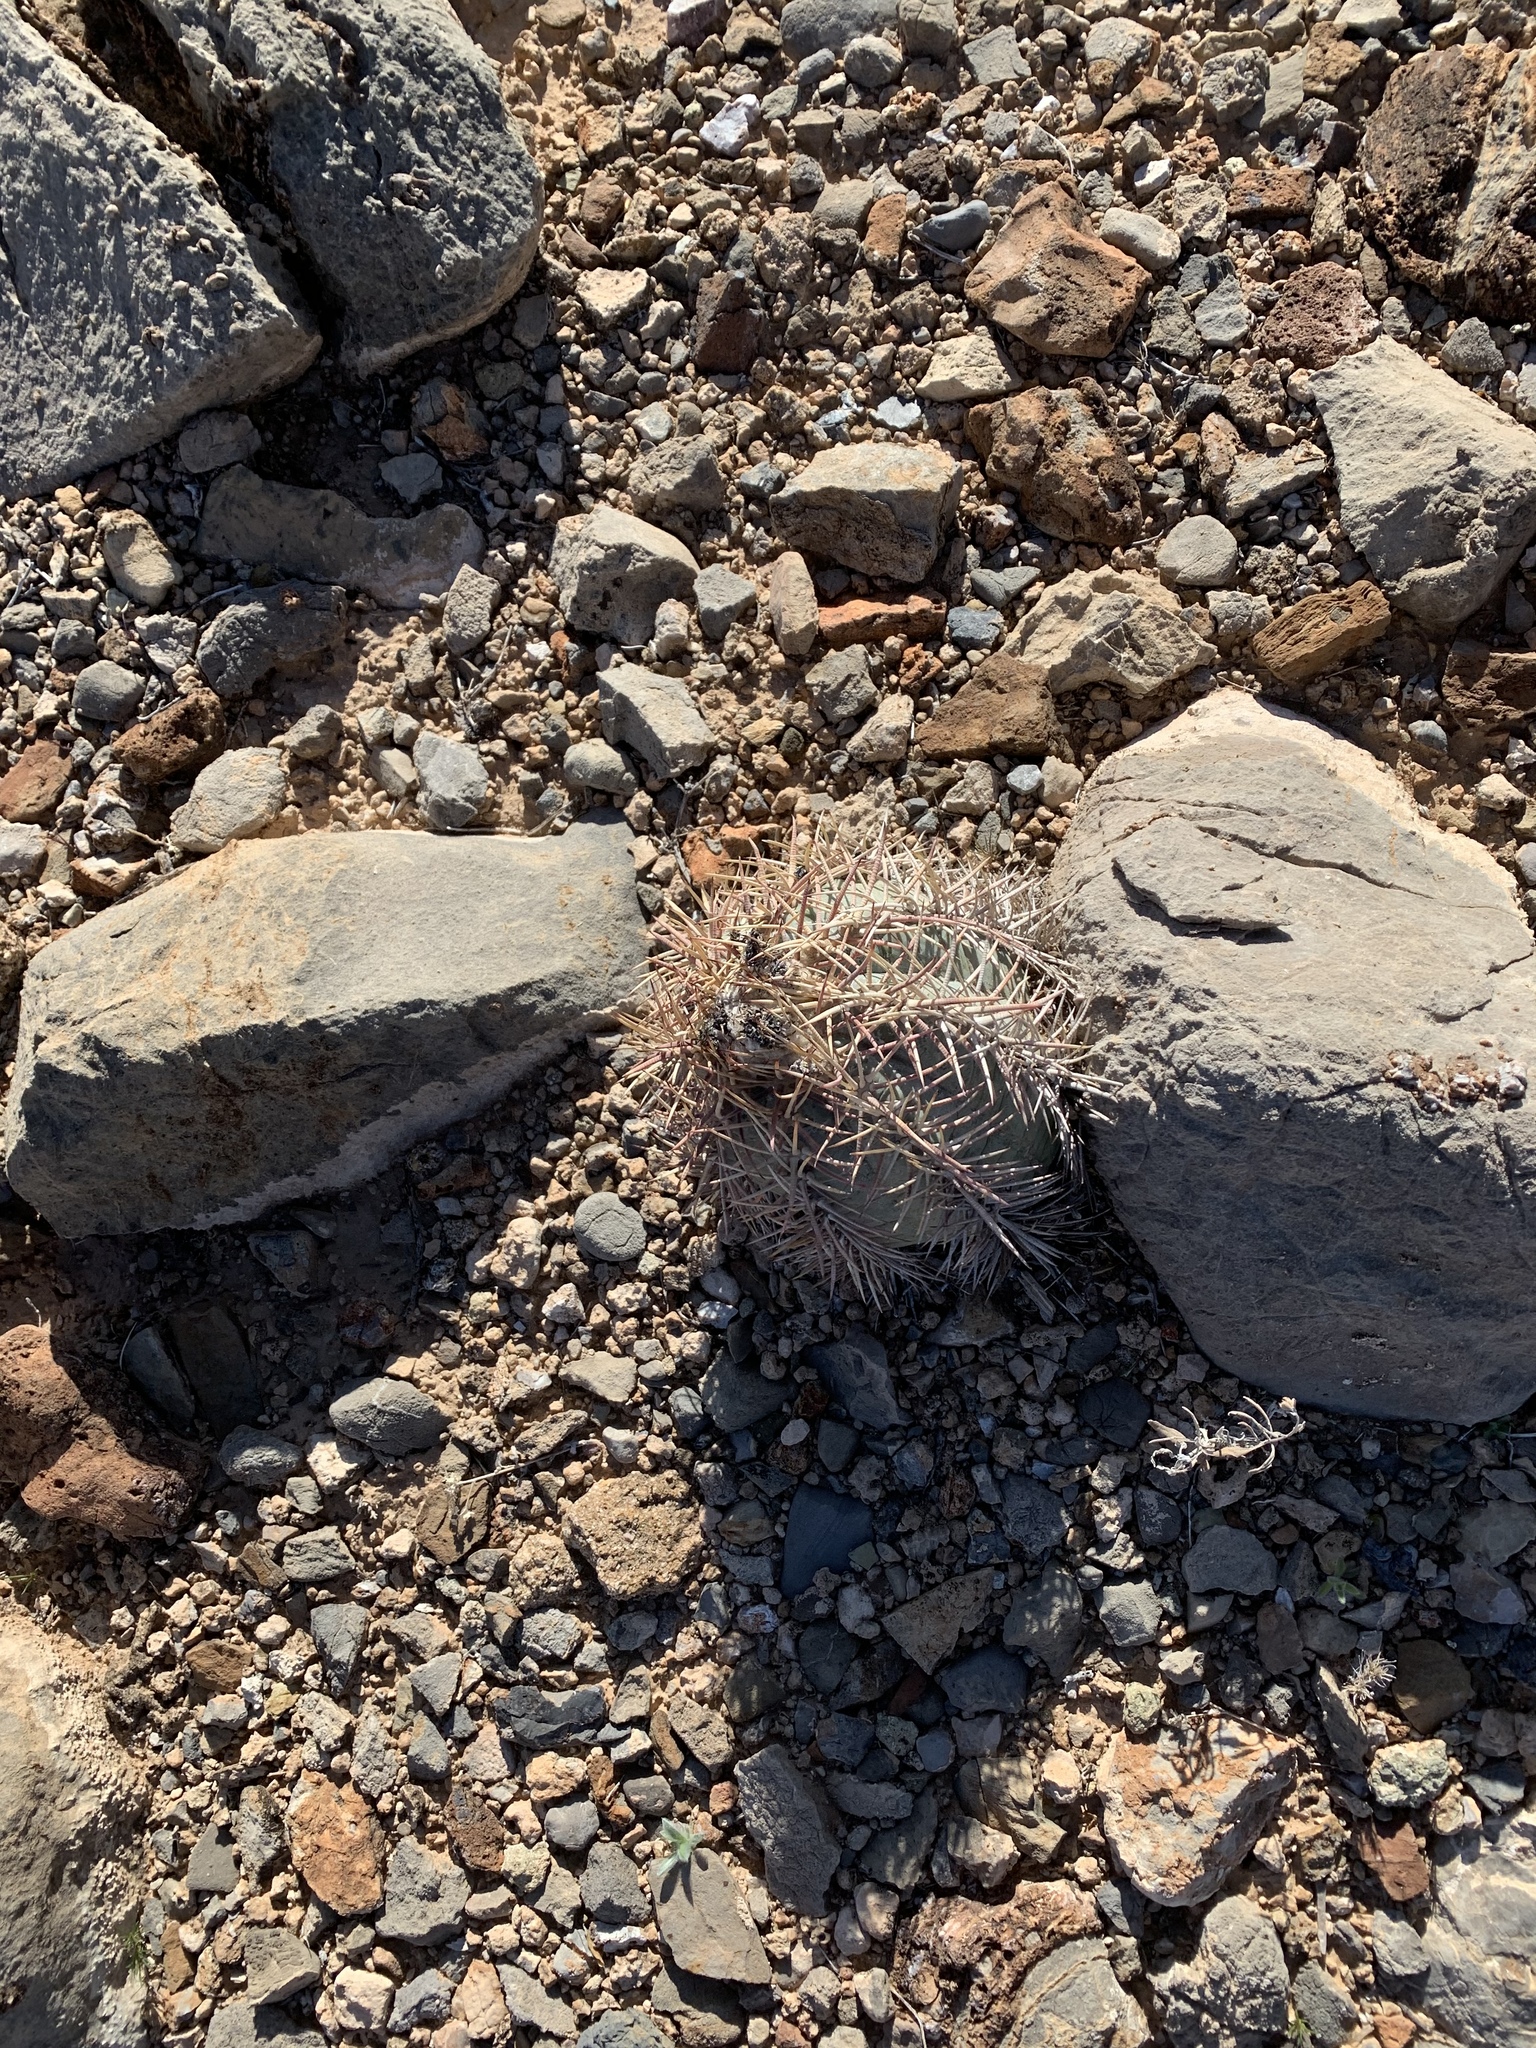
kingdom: Plantae
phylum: Tracheophyta
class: Magnoliopsida
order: Caryophyllales
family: Cactaceae
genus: Echinocactus
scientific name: Echinocactus horizonthalonius
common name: Devilshead
